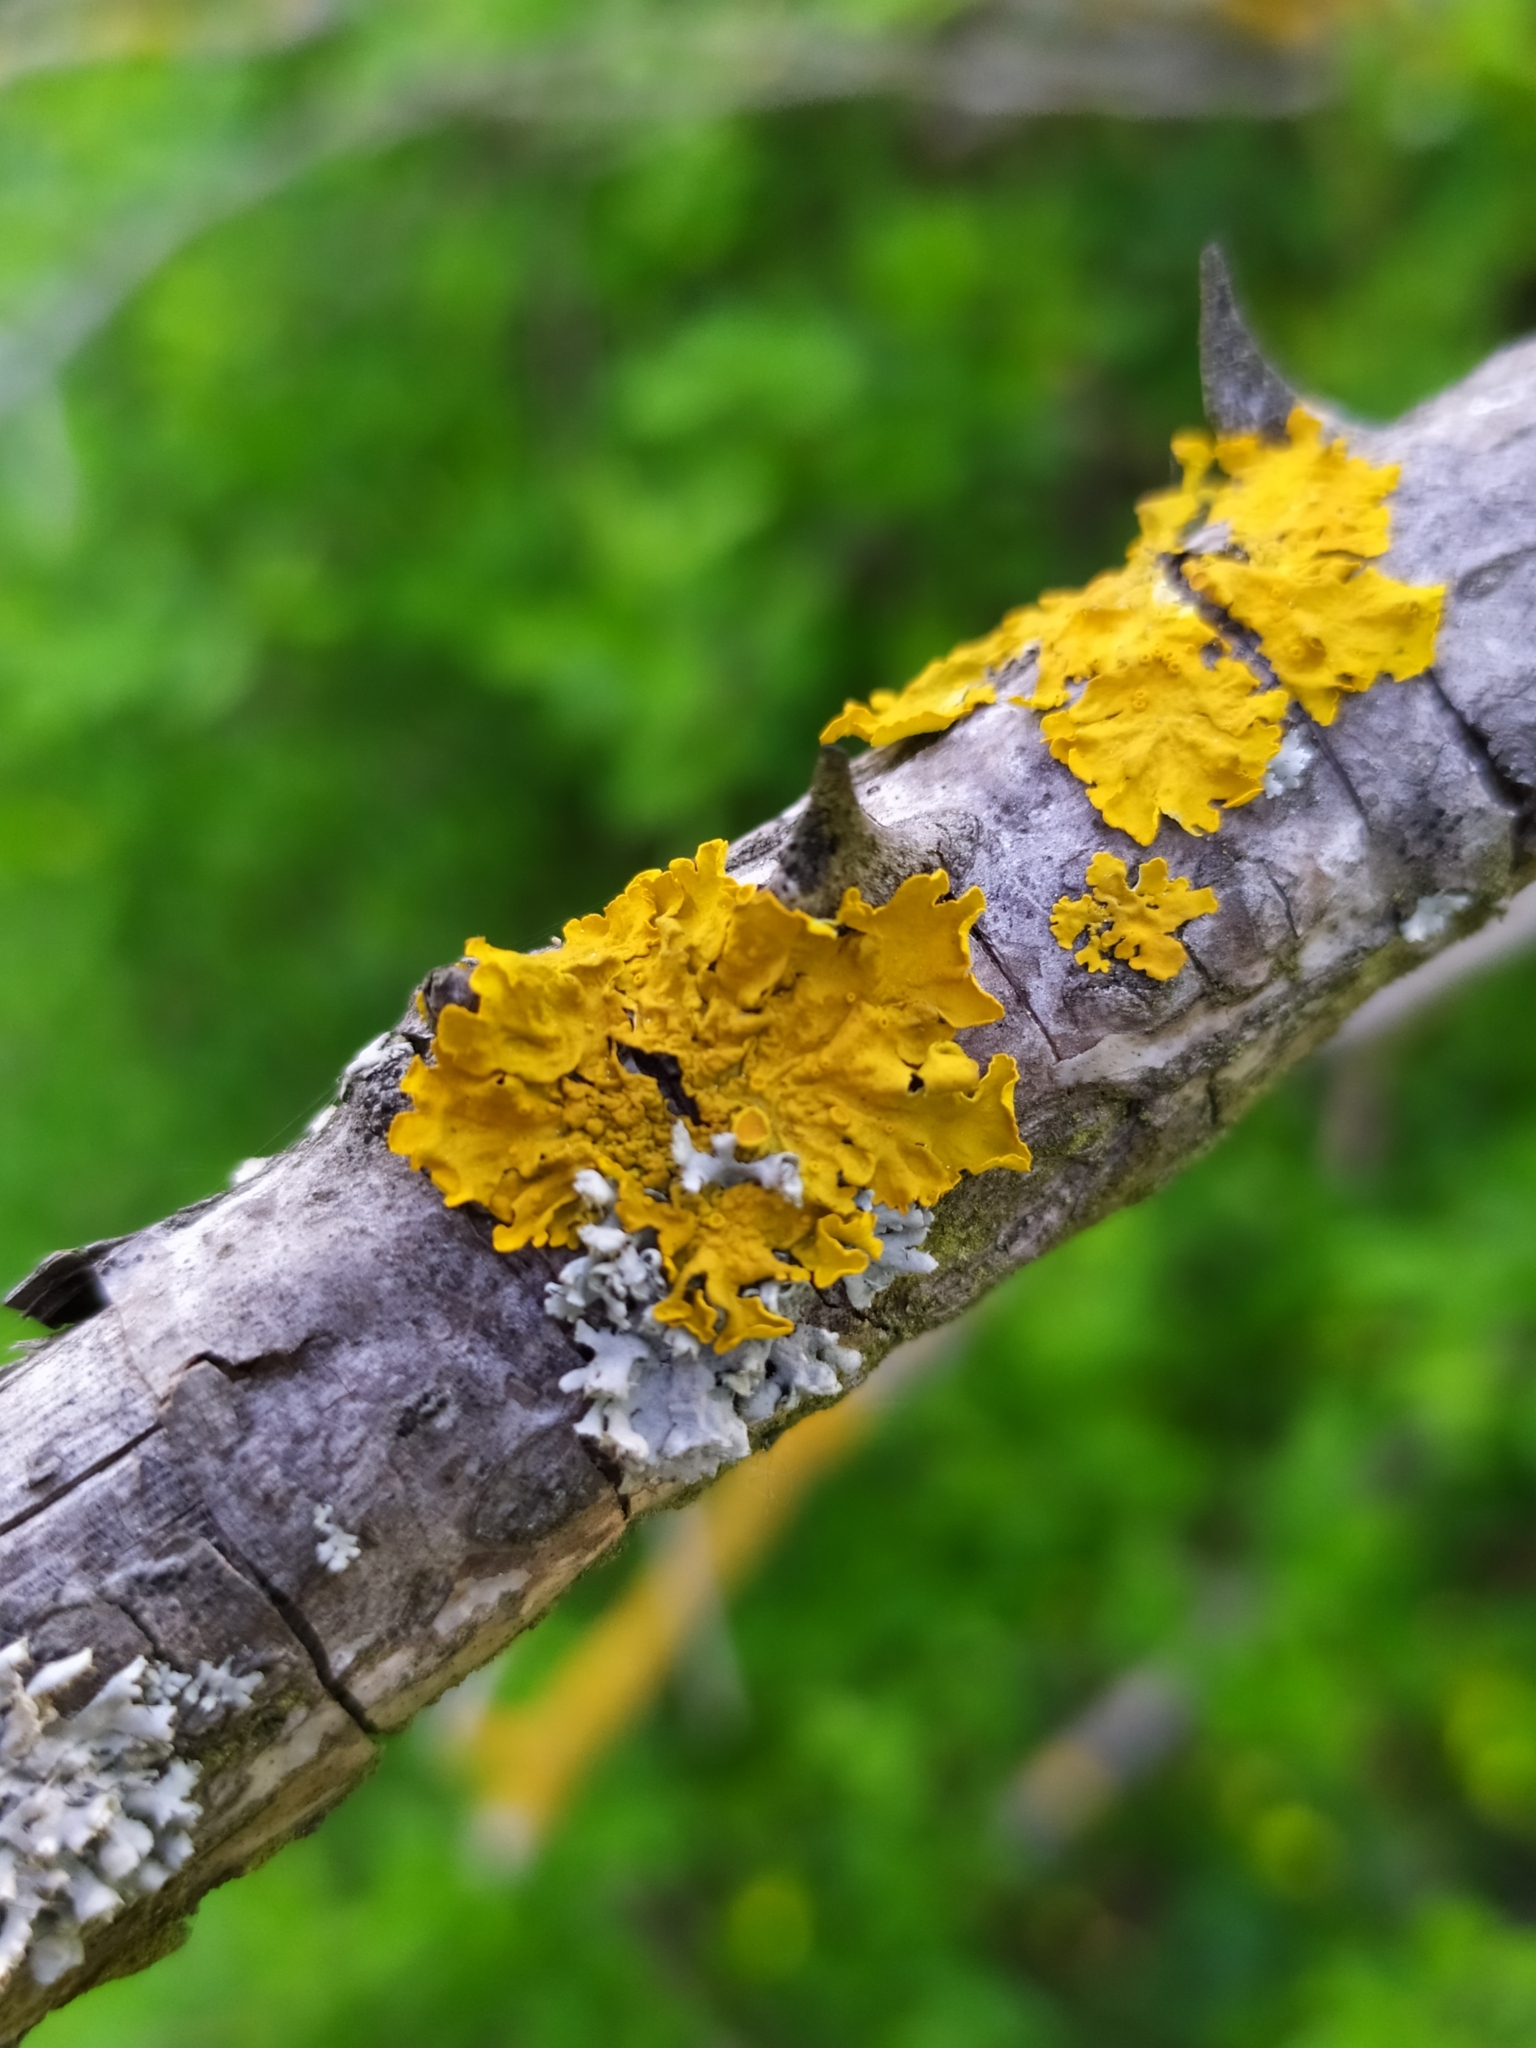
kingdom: Fungi
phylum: Ascomycota
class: Lecanoromycetes
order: Teloschistales
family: Teloschistaceae
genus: Xanthoria
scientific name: Xanthoria parietina
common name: Common orange lichen
